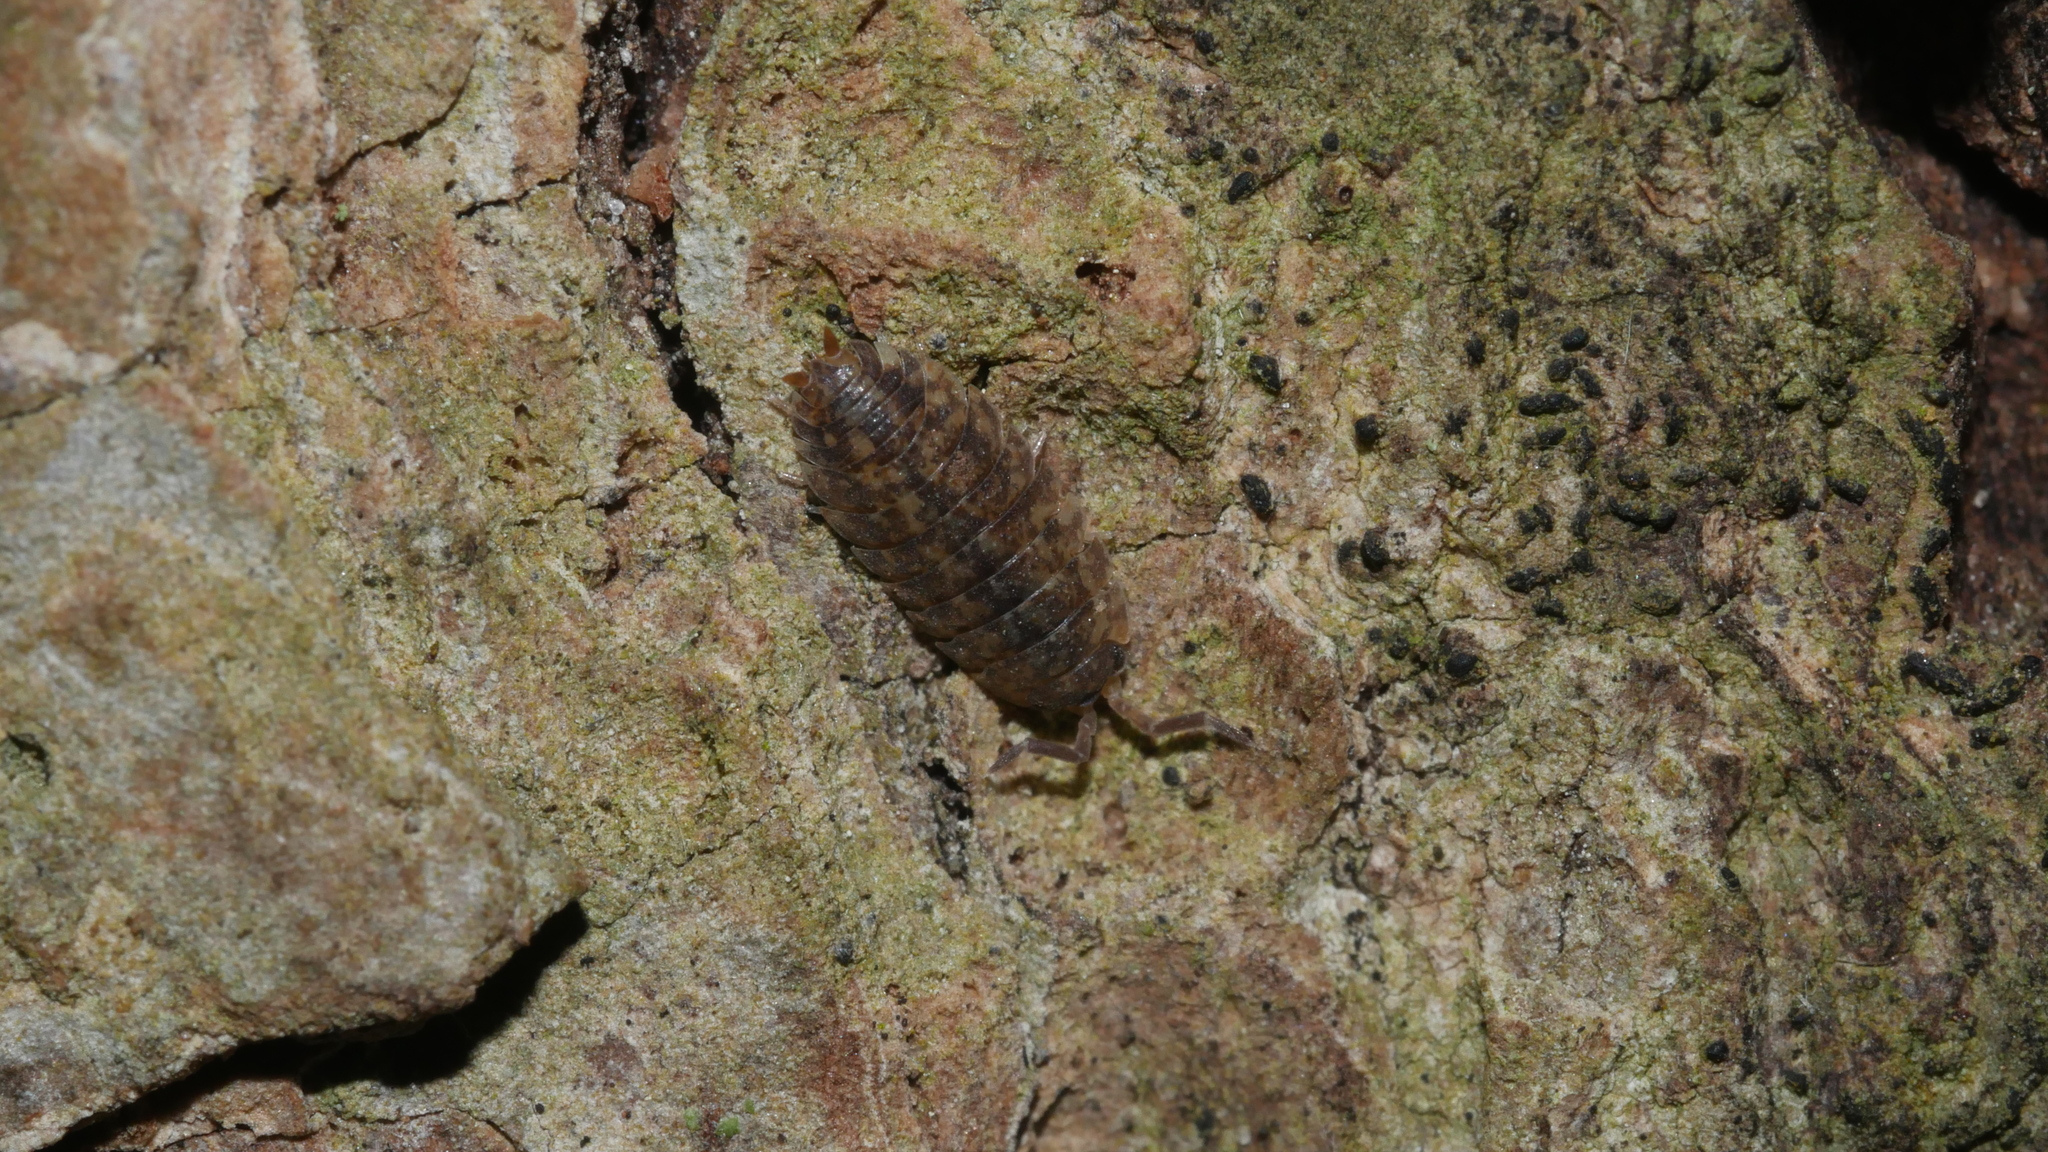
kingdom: Animalia
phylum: Arthropoda
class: Malacostraca
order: Isopoda
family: Porcellionidae
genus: Porcellio
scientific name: Porcellio scaber
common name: Common rough woodlouse
